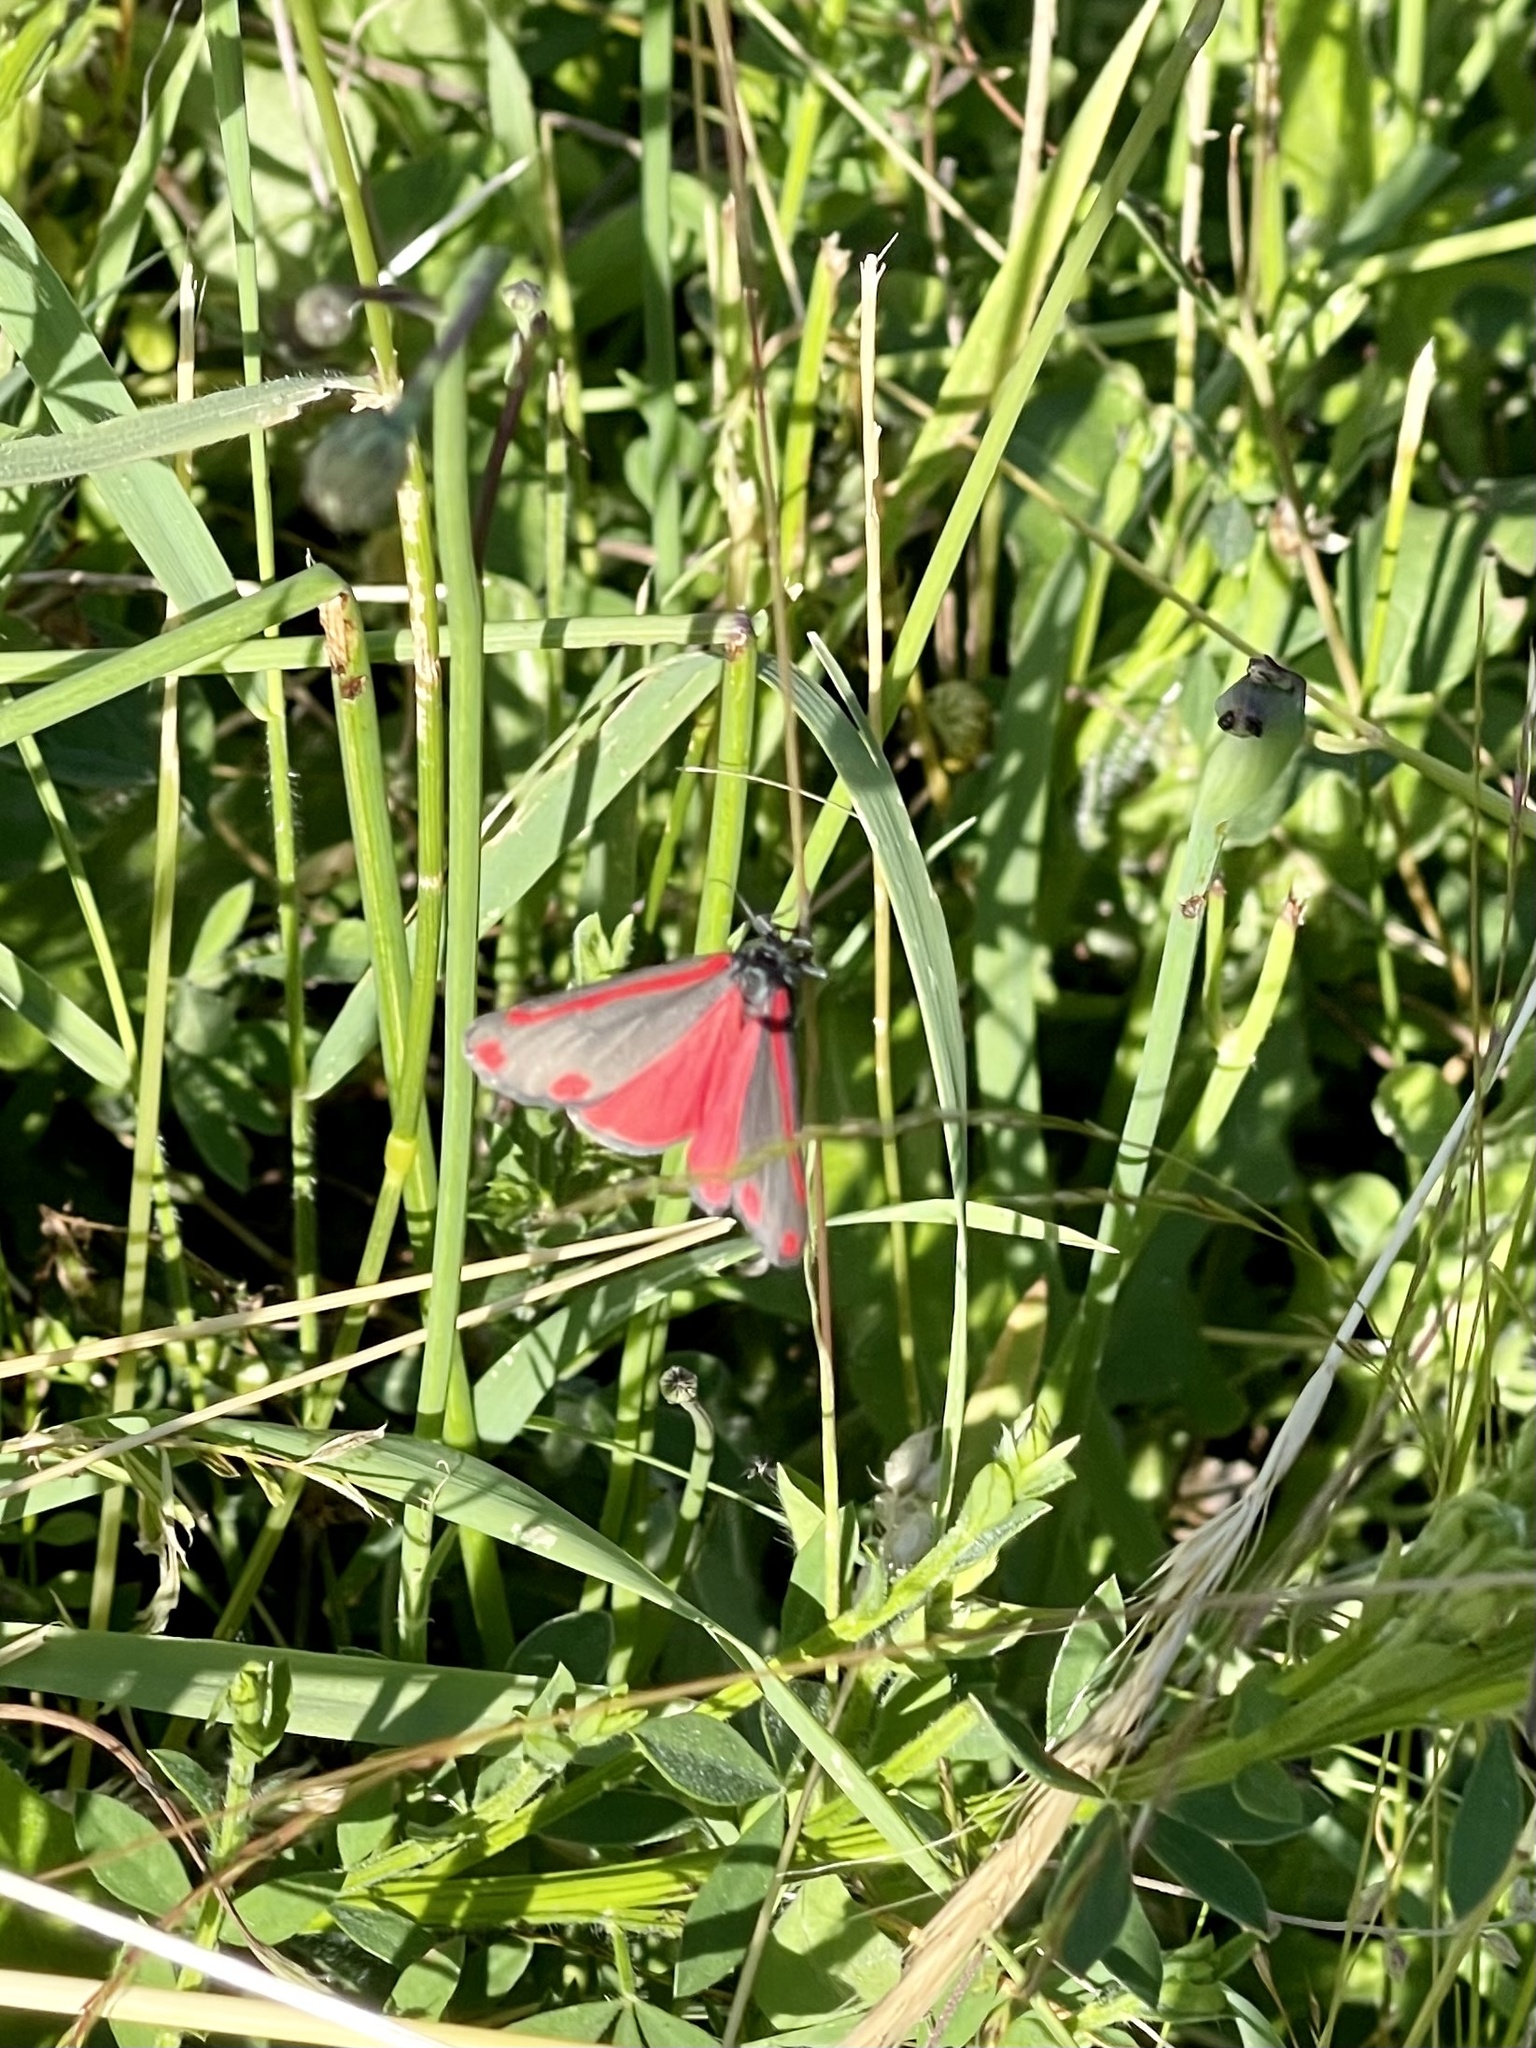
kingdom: Animalia
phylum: Arthropoda
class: Insecta
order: Lepidoptera
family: Erebidae
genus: Tyria
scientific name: Tyria jacobaeae
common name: Cinnabar
